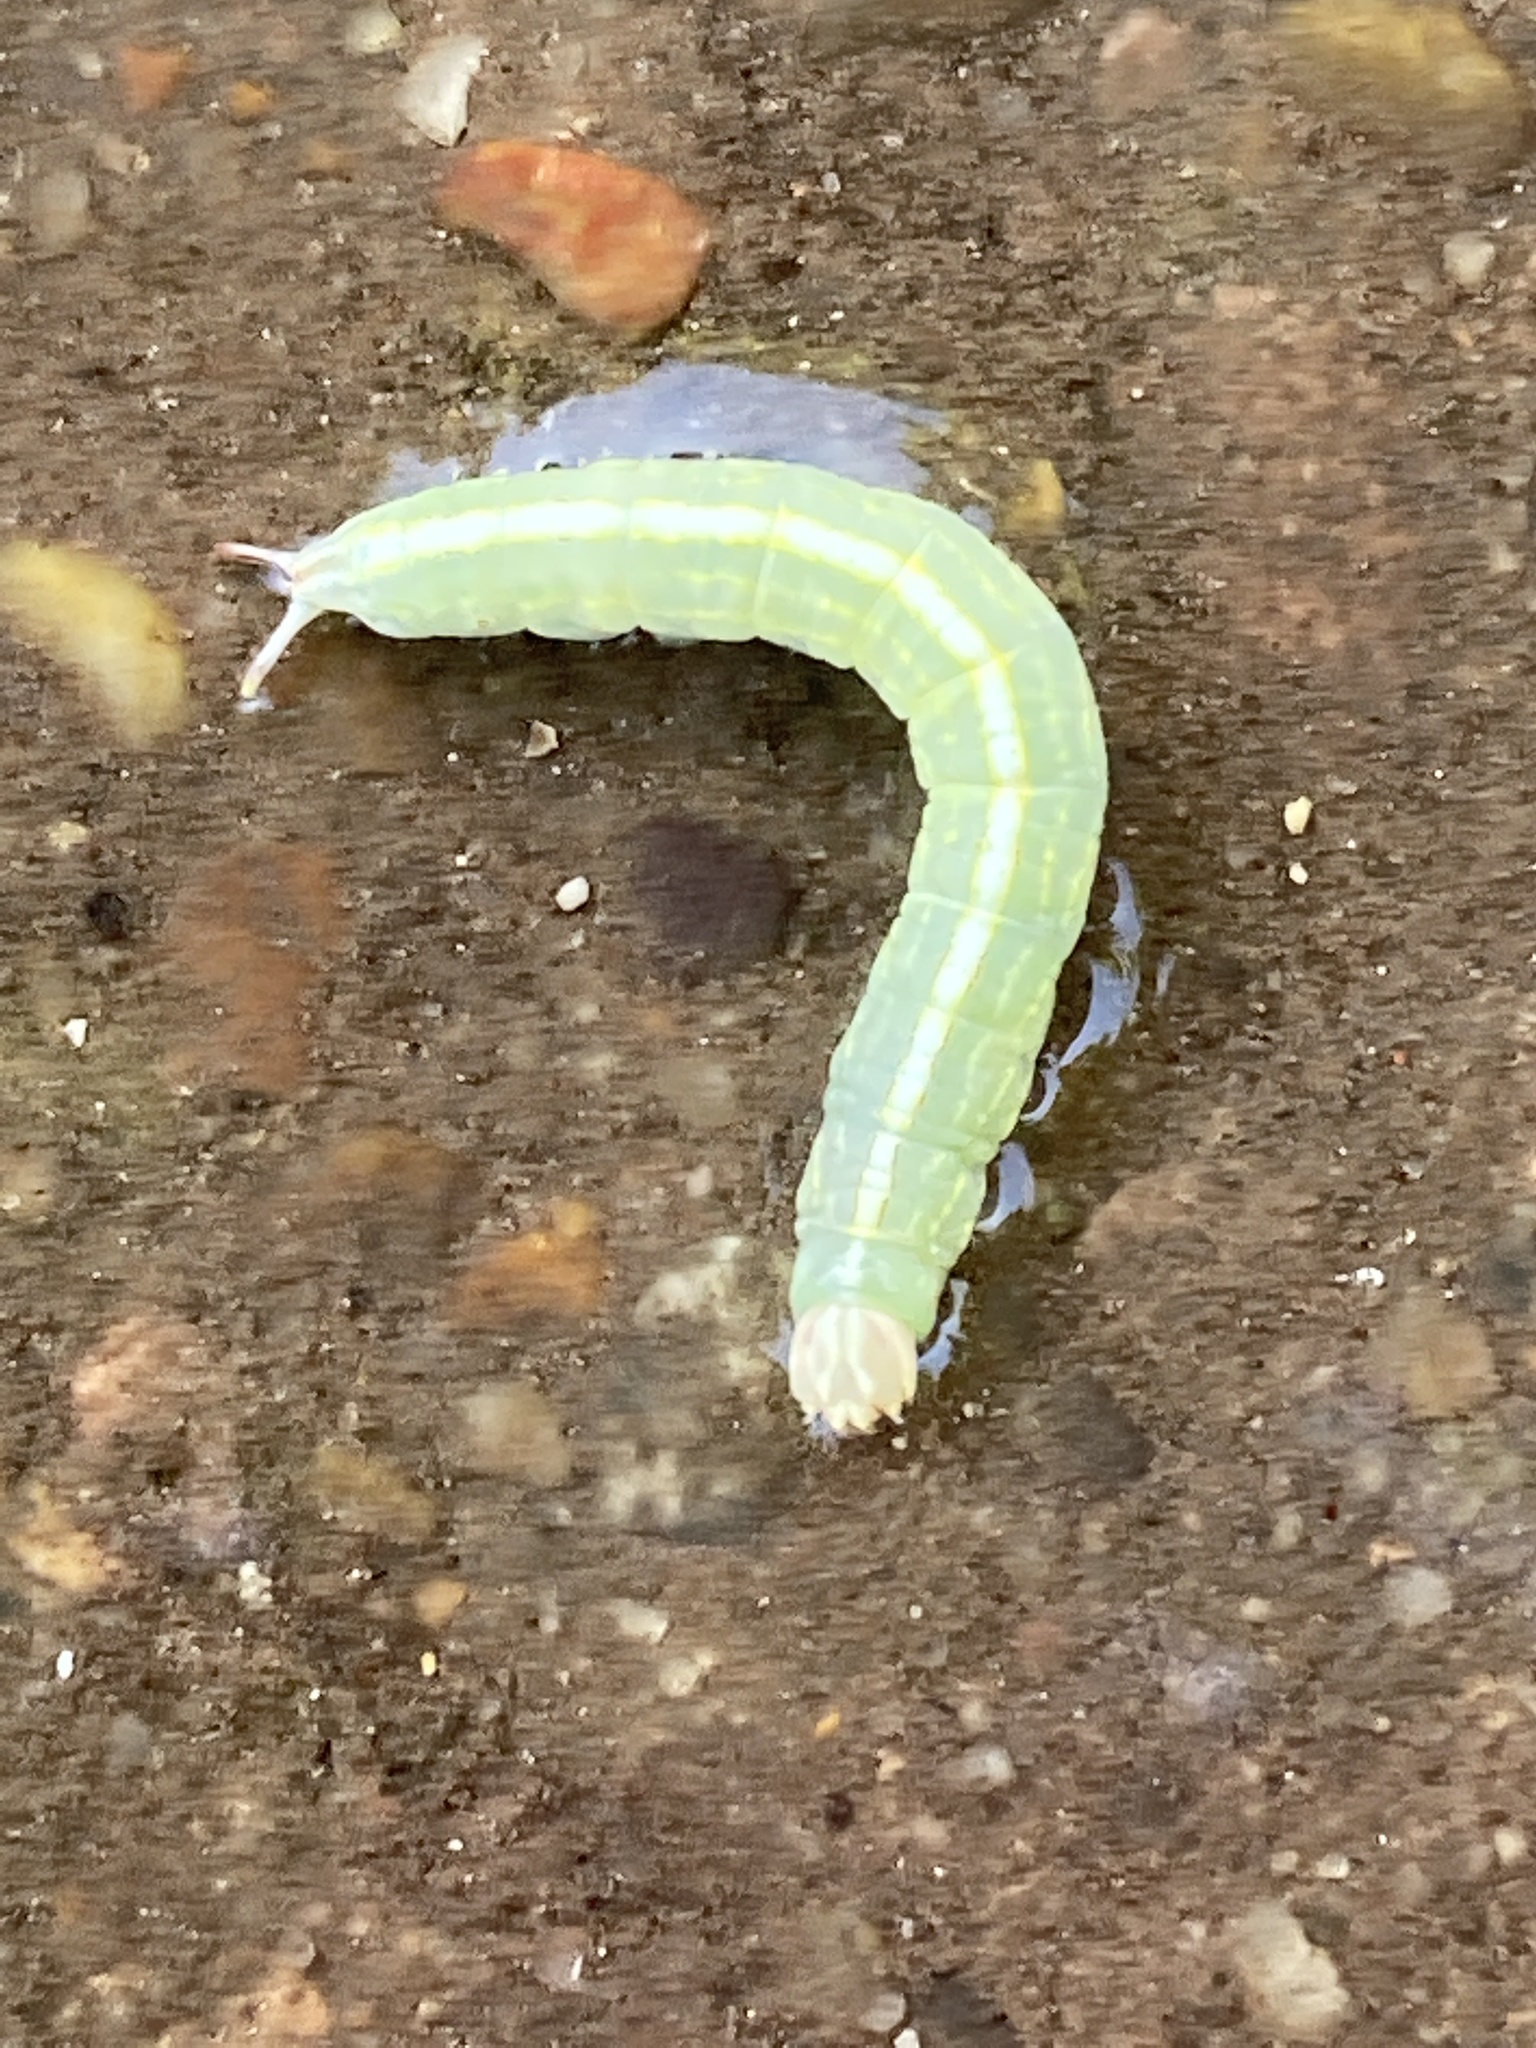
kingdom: Animalia
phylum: Arthropoda
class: Insecta
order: Lepidoptera
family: Notodontidae
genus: Misogada
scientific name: Misogada unicolor
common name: Drab prominent
